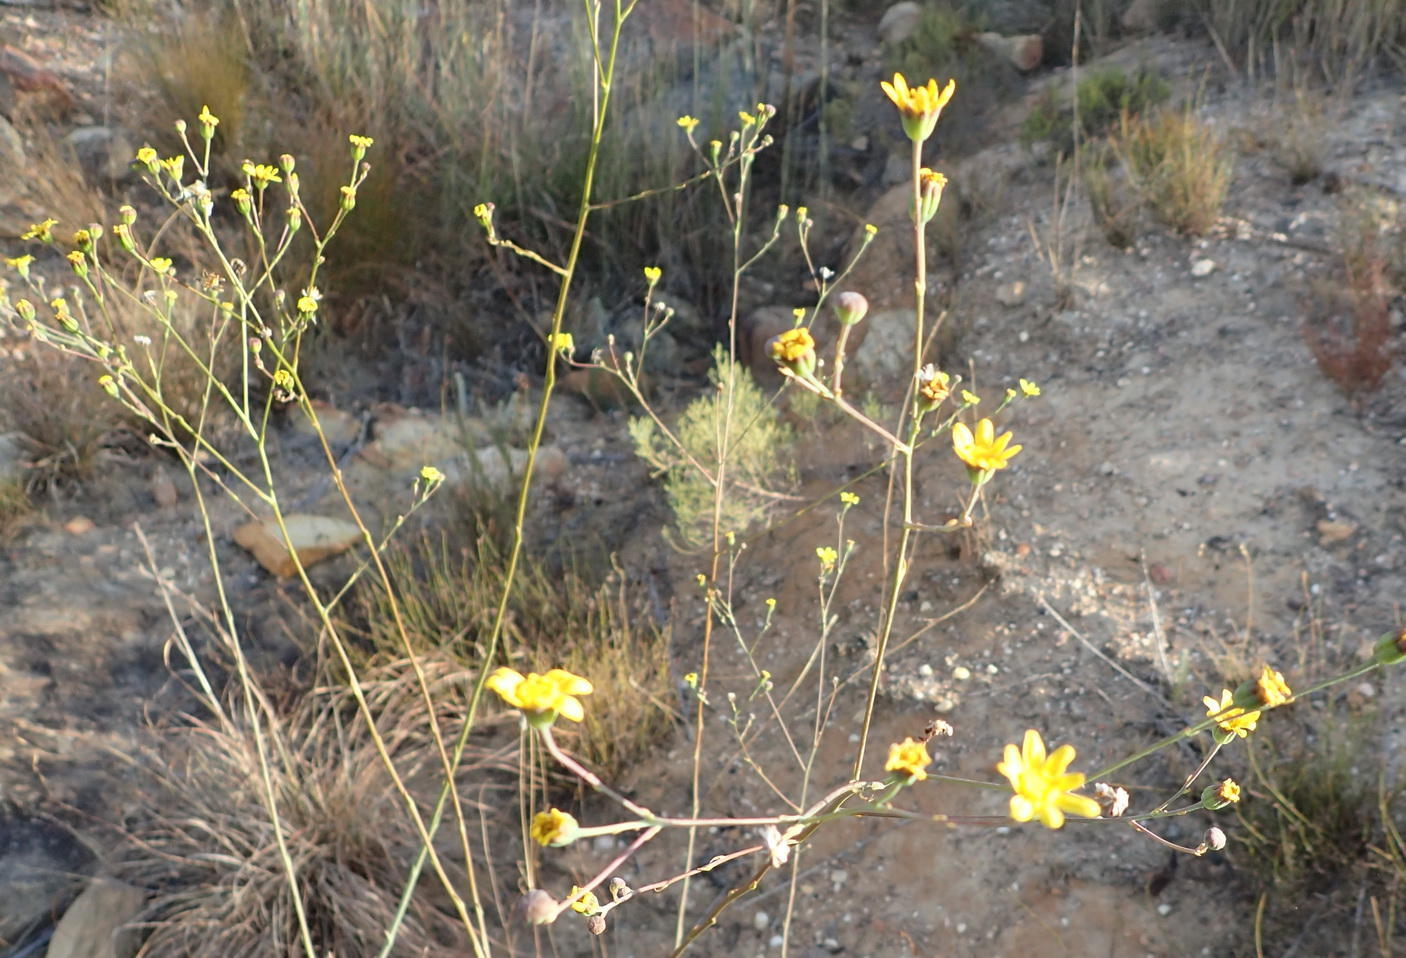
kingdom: Plantae
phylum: Tracheophyta
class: Magnoliopsida
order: Asterales
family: Asteraceae
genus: Othonna
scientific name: Othonna quinquedentata
